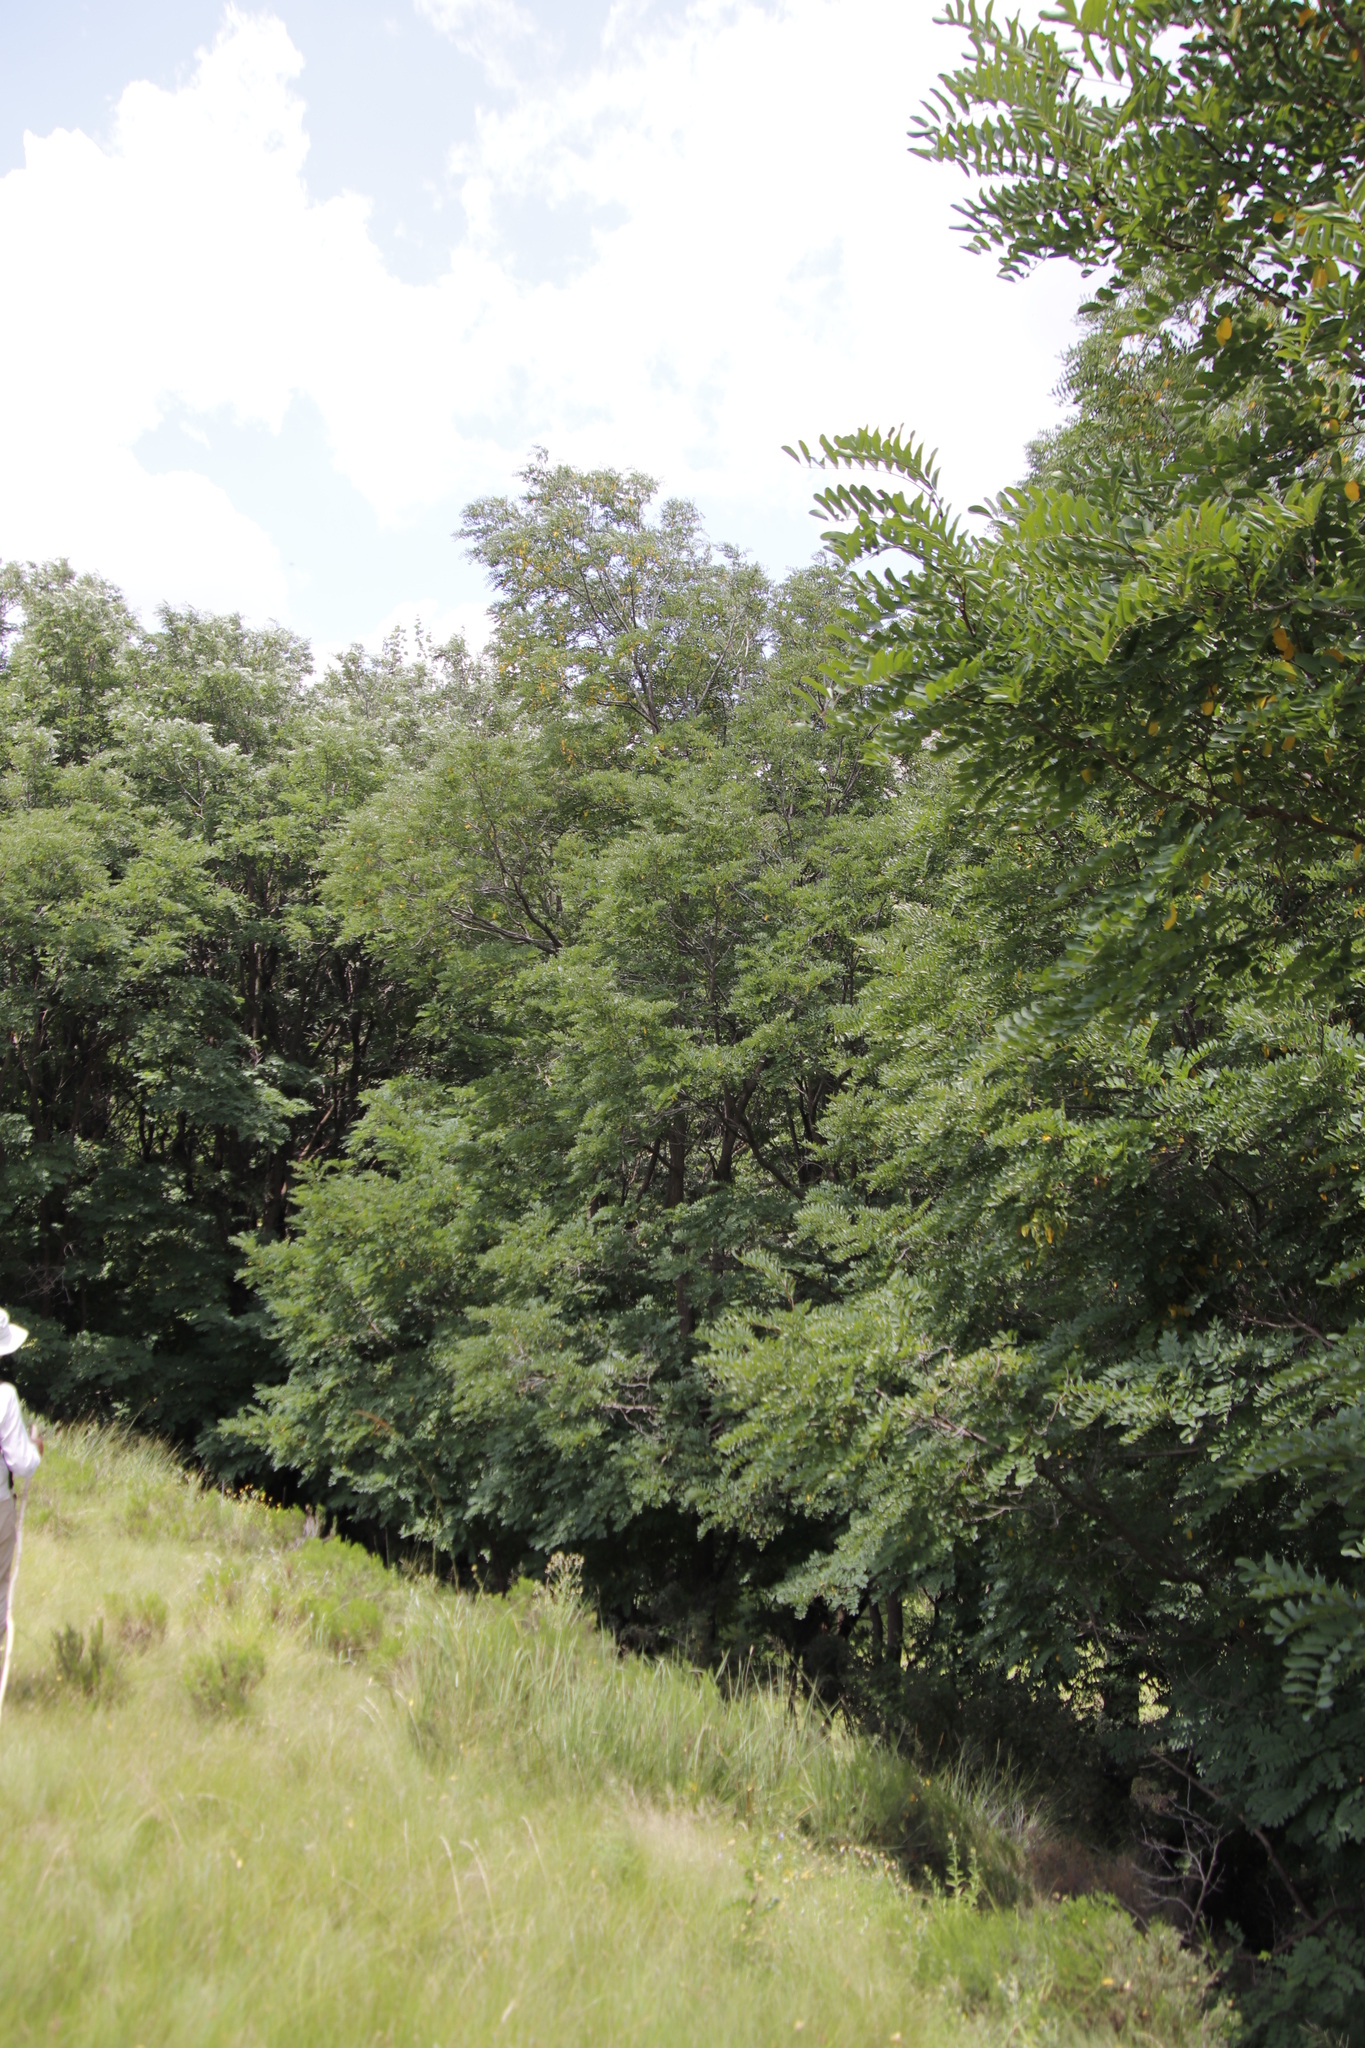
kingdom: Plantae
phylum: Tracheophyta
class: Magnoliopsida
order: Fabales
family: Fabaceae
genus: Robinia
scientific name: Robinia pseudoacacia
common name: Black locust
